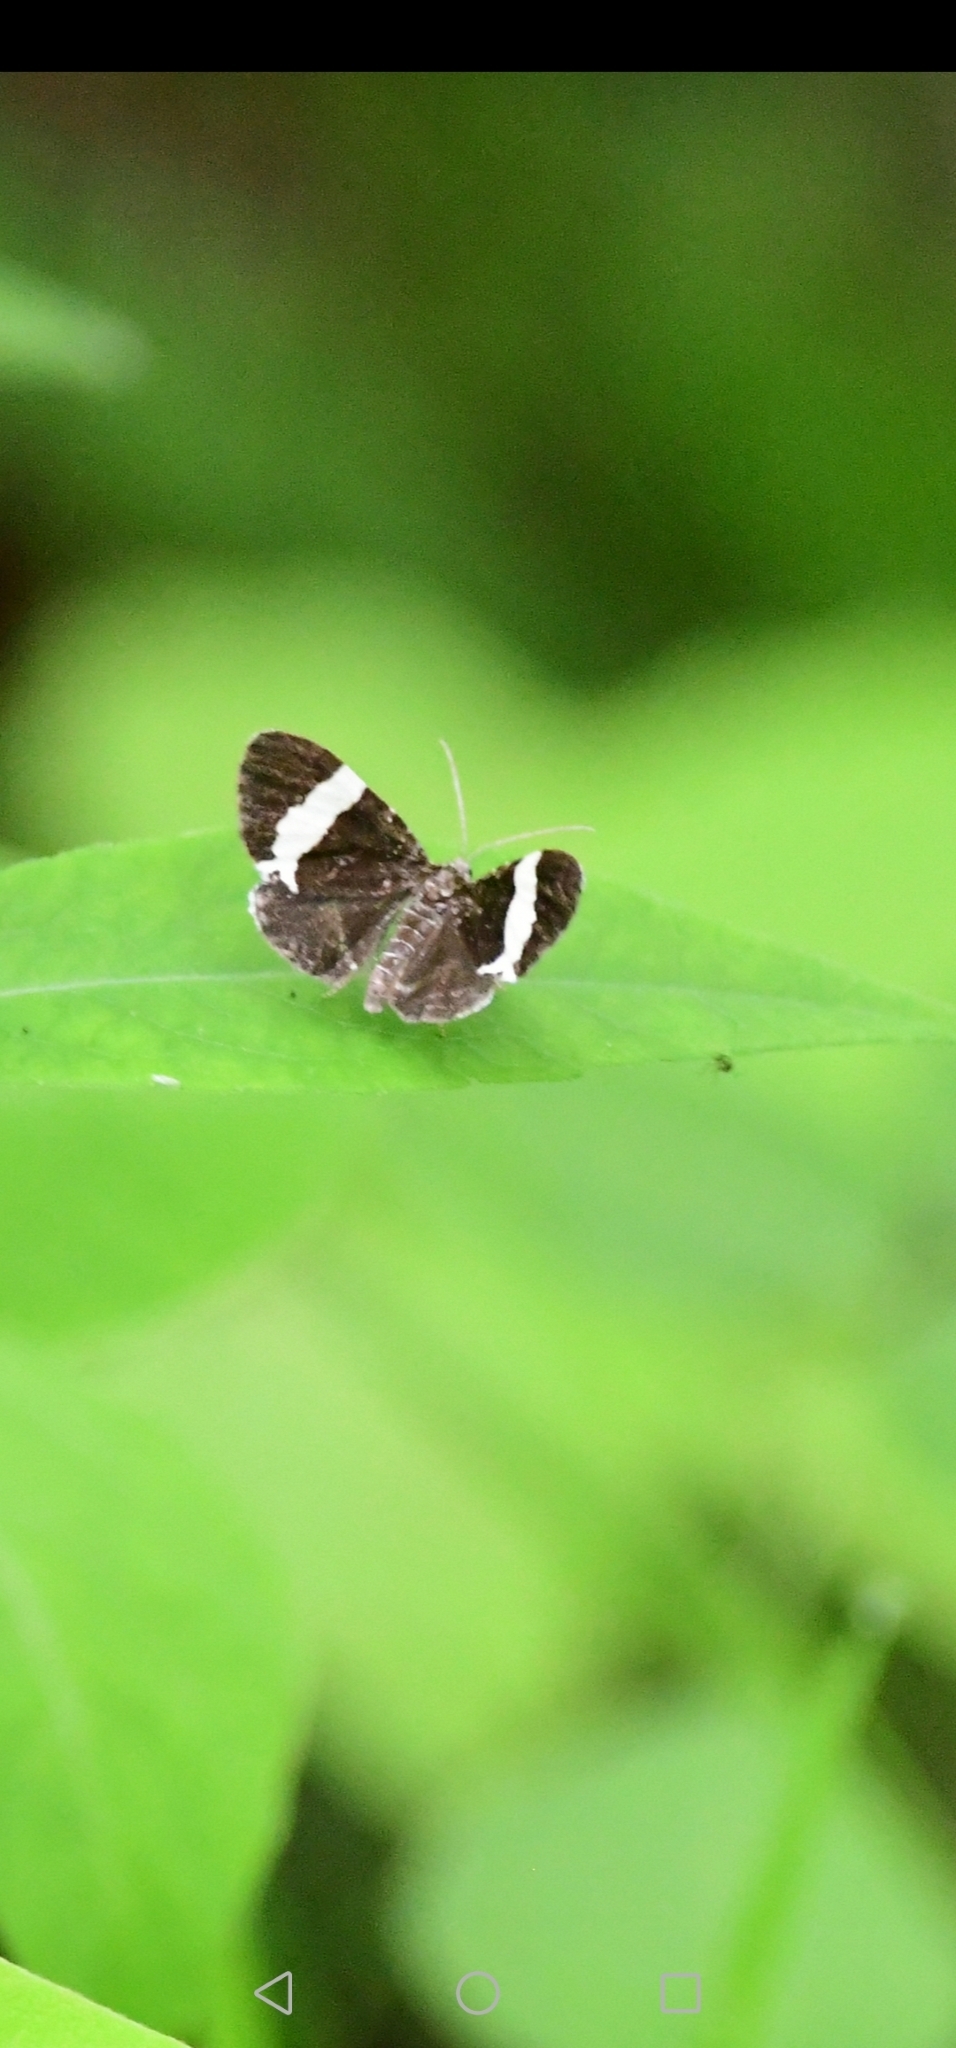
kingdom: Animalia
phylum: Arthropoda
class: Insecta
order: Lepidoptera
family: Geometridae
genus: Trichodezia
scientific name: Trichodezia albovittata
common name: White striped black
